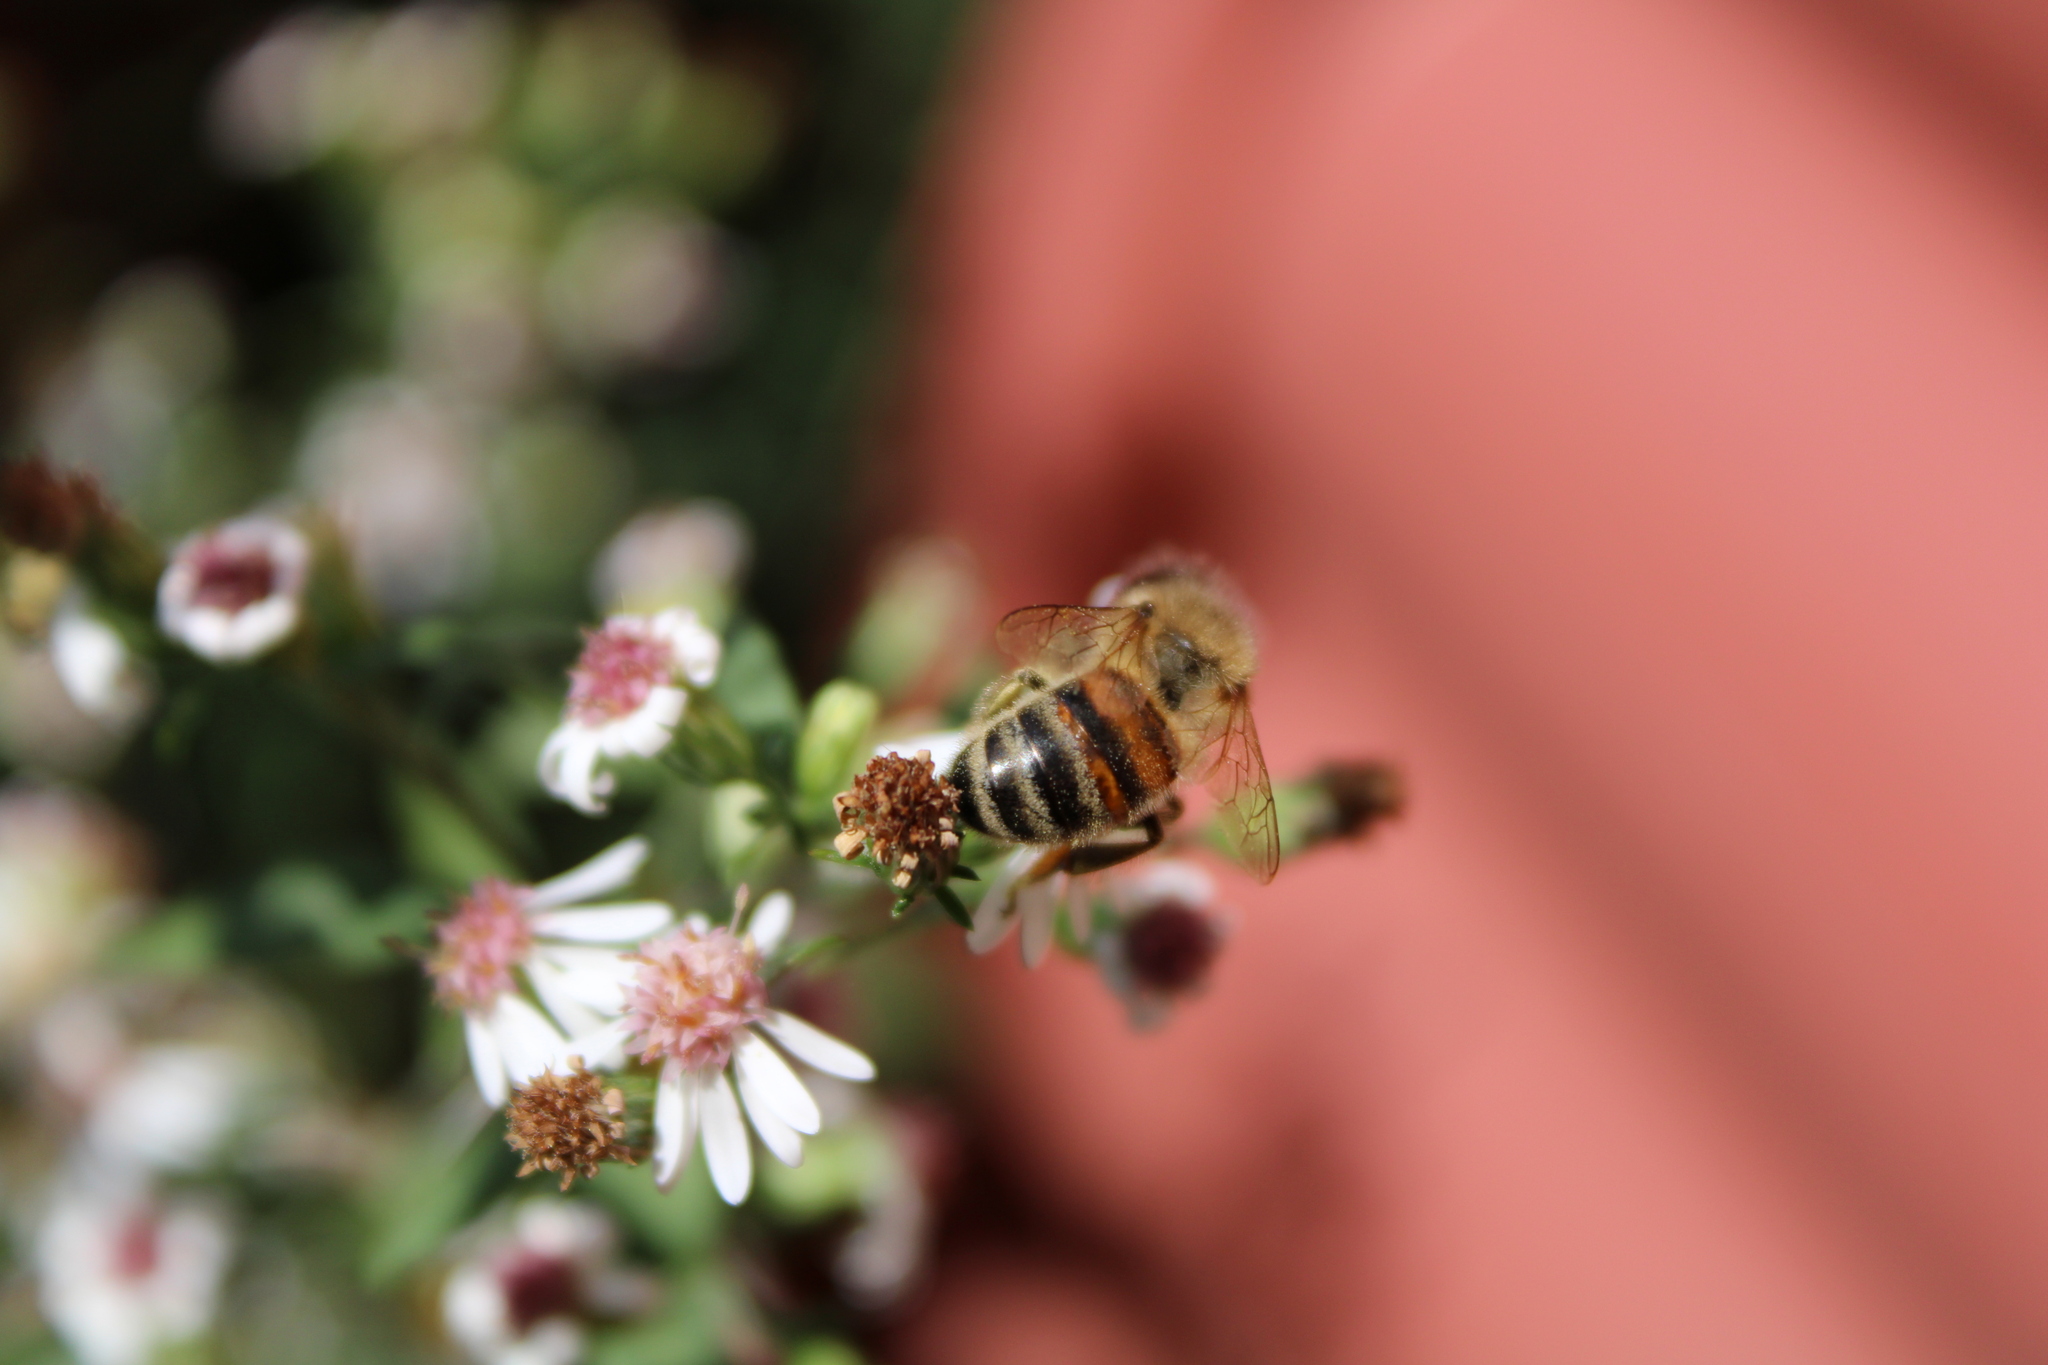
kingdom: Animalia
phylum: Arthropoda
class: Insecta
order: Hymenoptera
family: Apidae
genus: Apis
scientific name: Apis mellifera
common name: Honey bee
